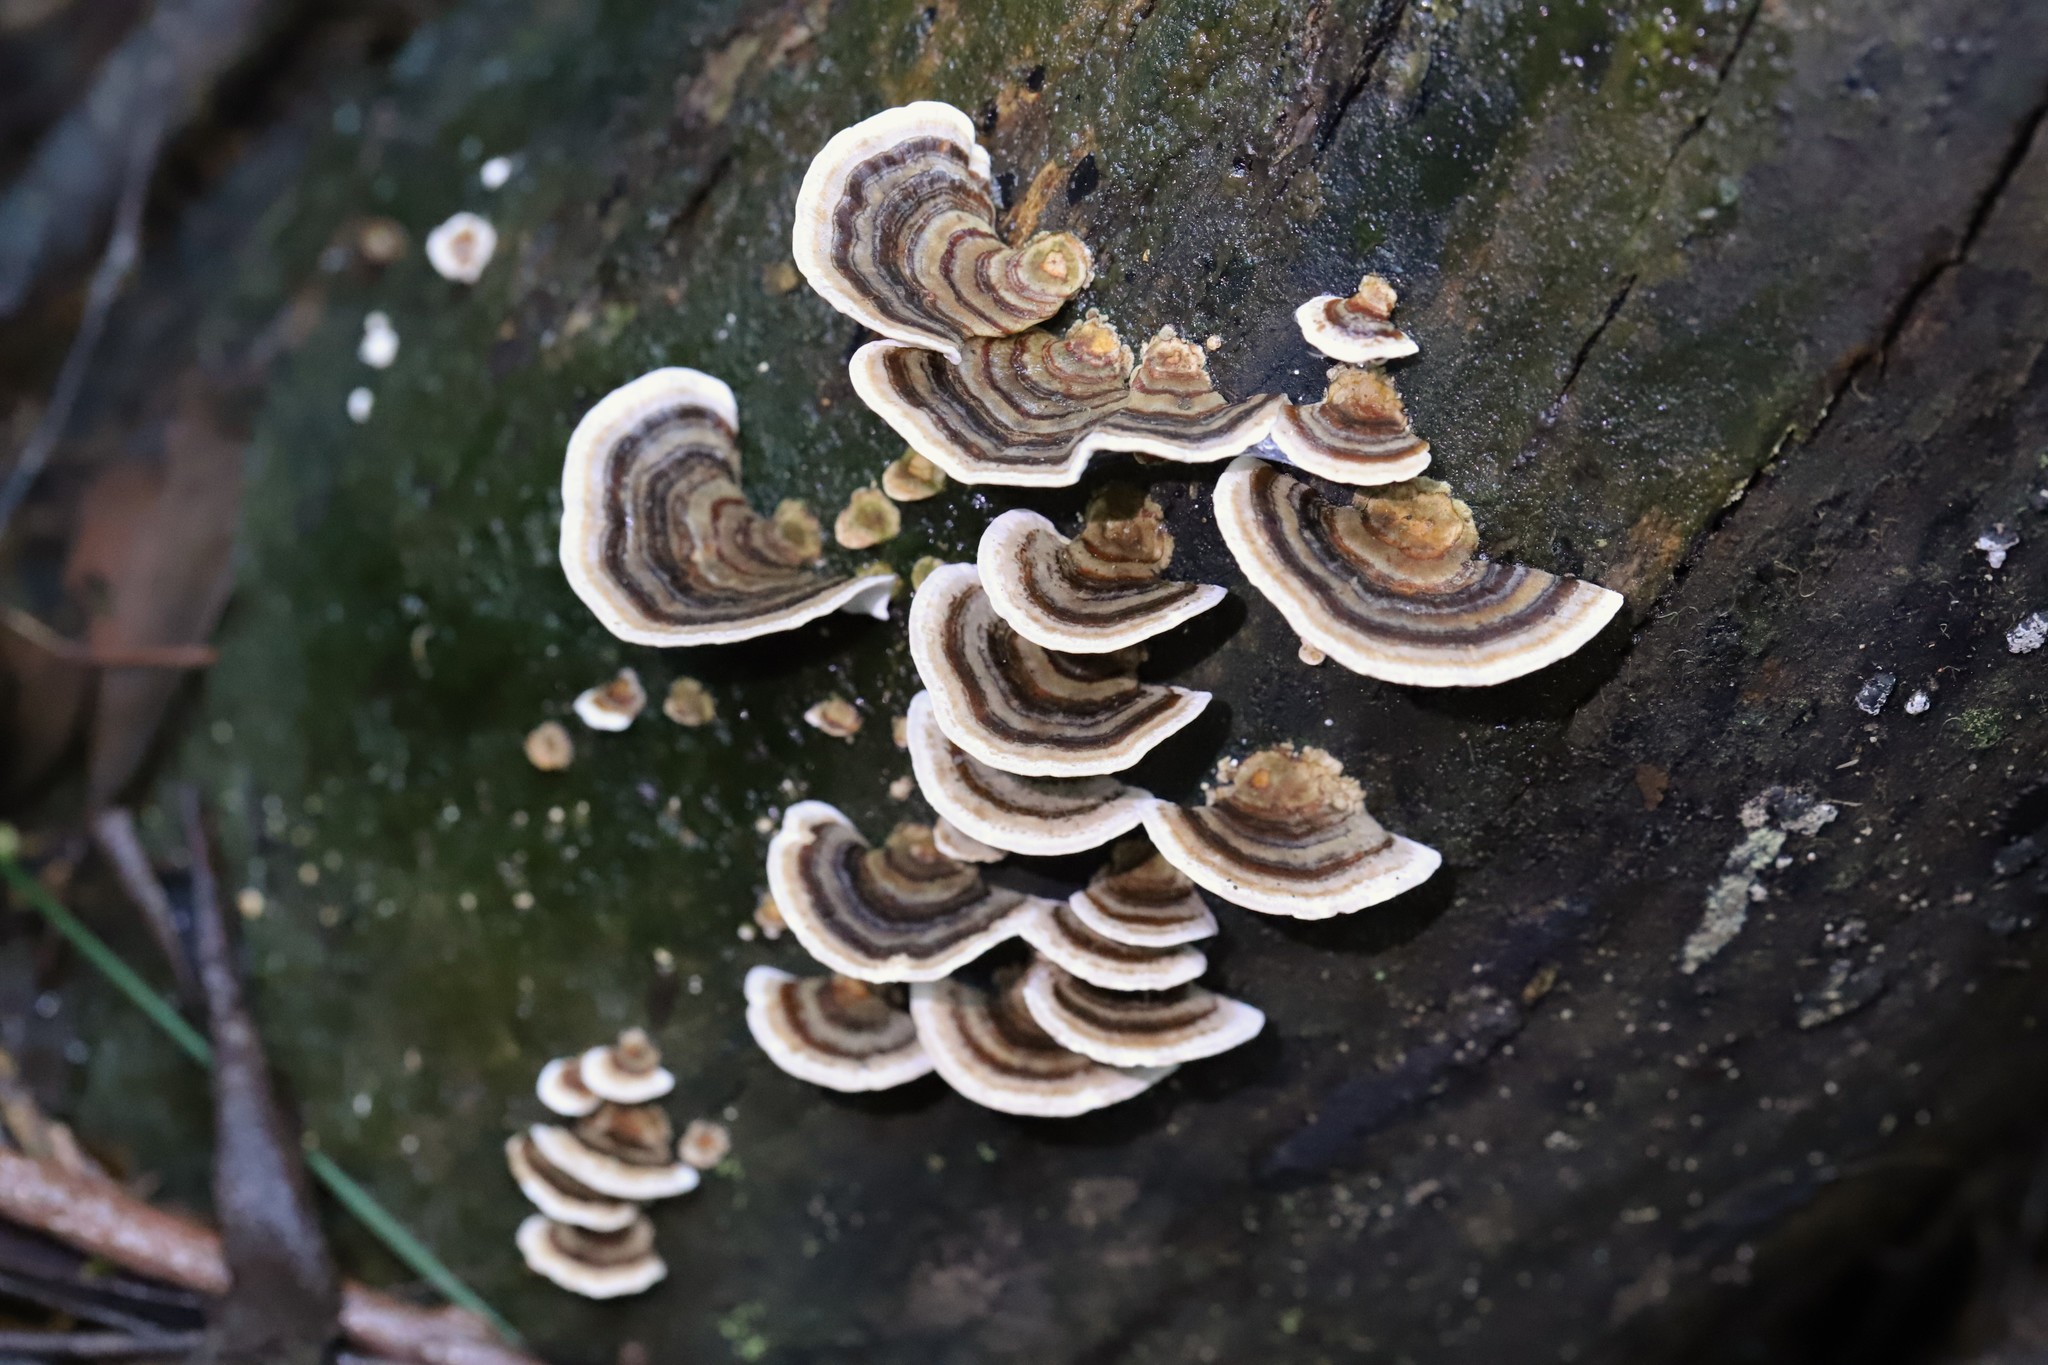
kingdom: Fungi
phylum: Basidiomycota
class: Agaricomycetes
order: Polyporales
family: Polyporaceae
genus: Trametes
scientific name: Trametes versicolor
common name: Turkeytail
